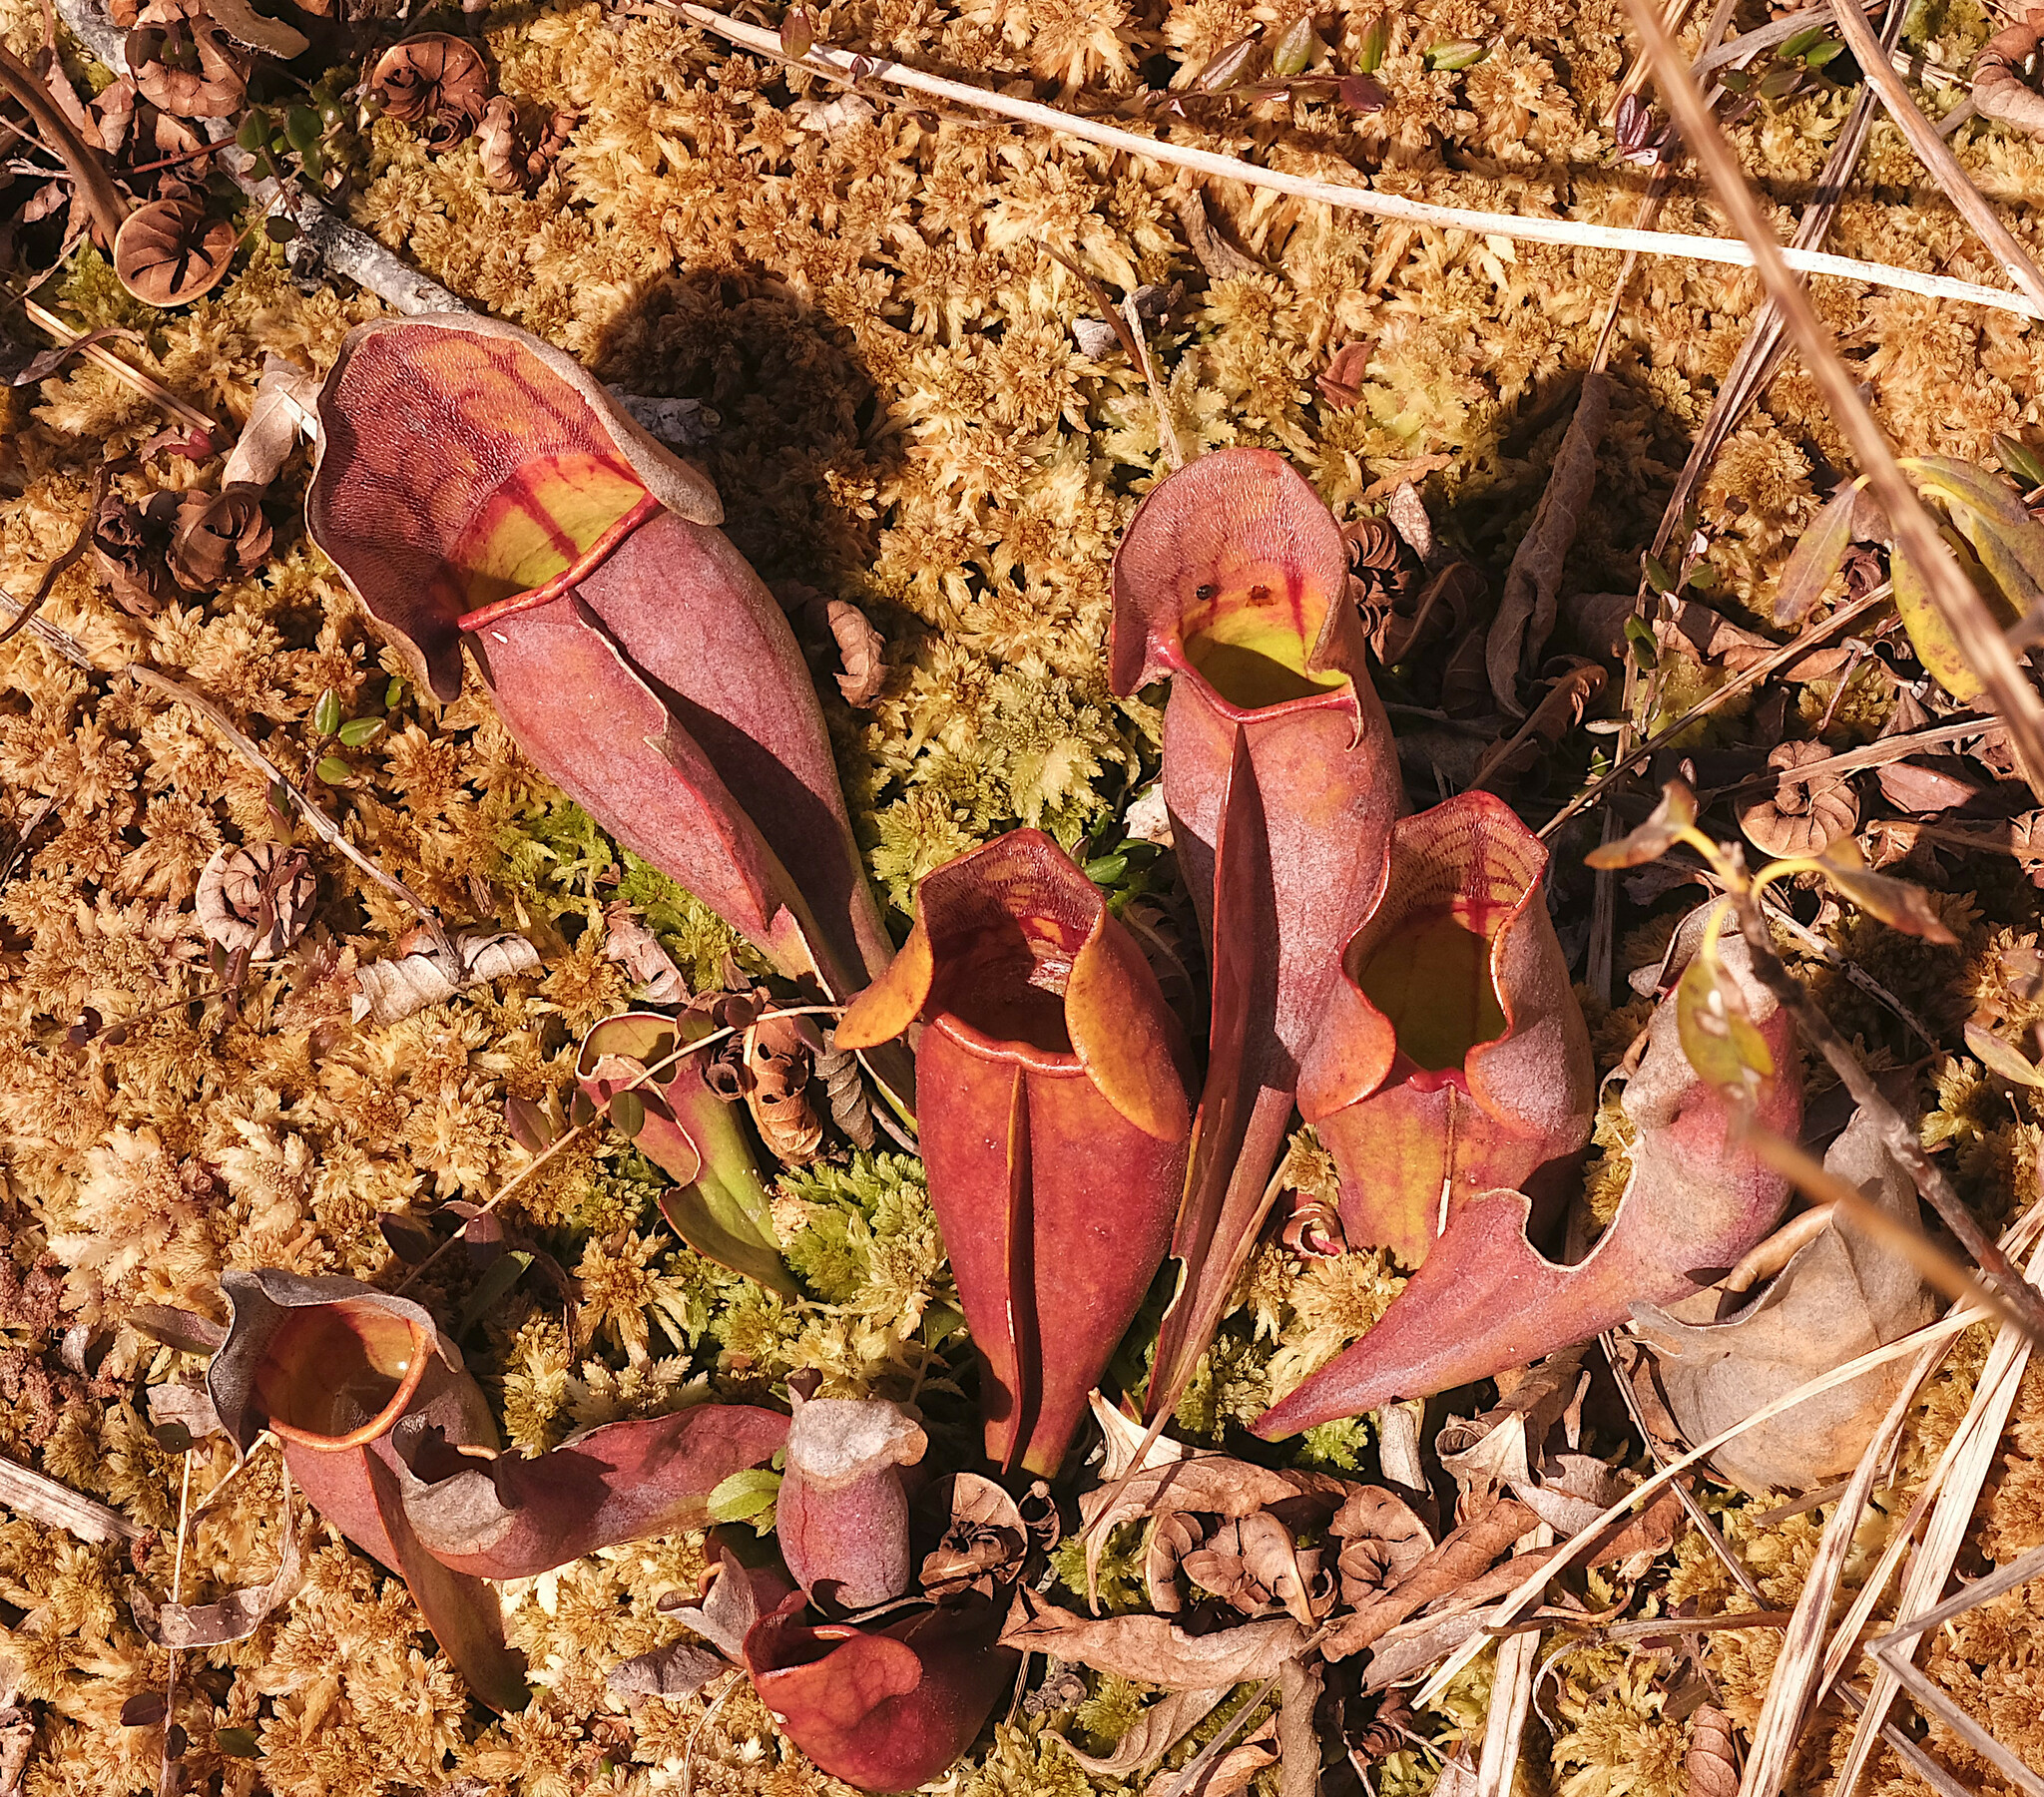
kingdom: Plantae
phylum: Tracheophyta
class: Magnoliopsida
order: Ericales
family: Sarraceniaceae
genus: Sarracenia
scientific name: Sarracenia purpurea
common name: Pitcherplant
